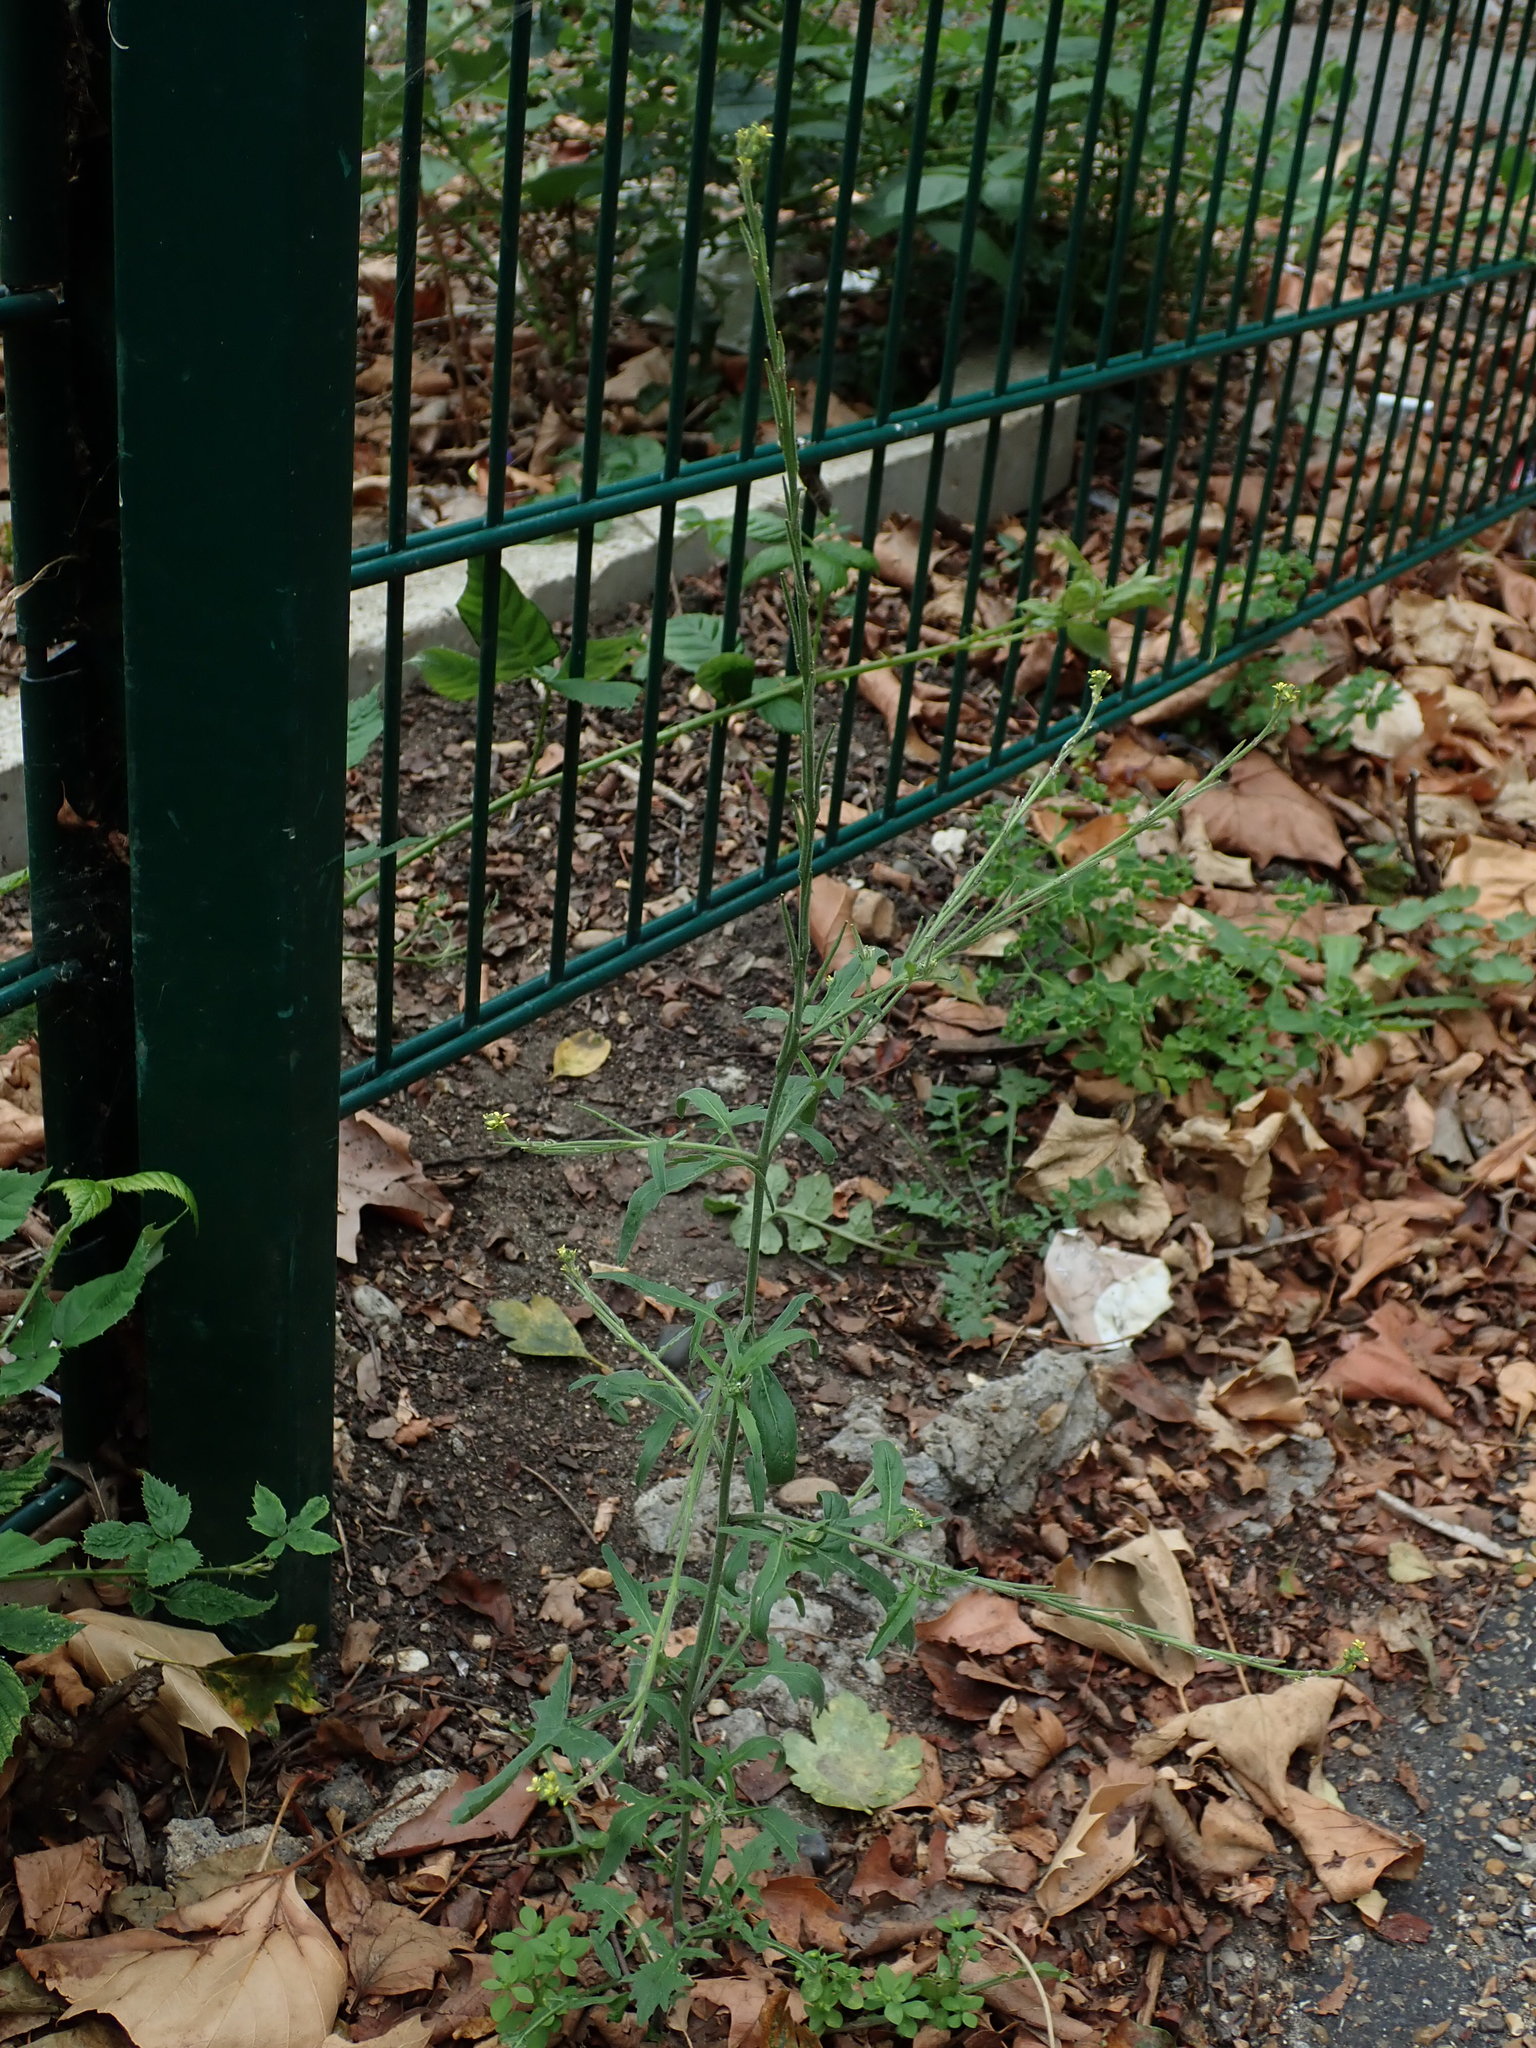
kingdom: Plantae
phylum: Tracheophyta
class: Magnoliopsida
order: Brassicales
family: Brassicaceae
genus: Sisymbrium
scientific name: Sisymbrium officinale
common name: Hedge mustard
